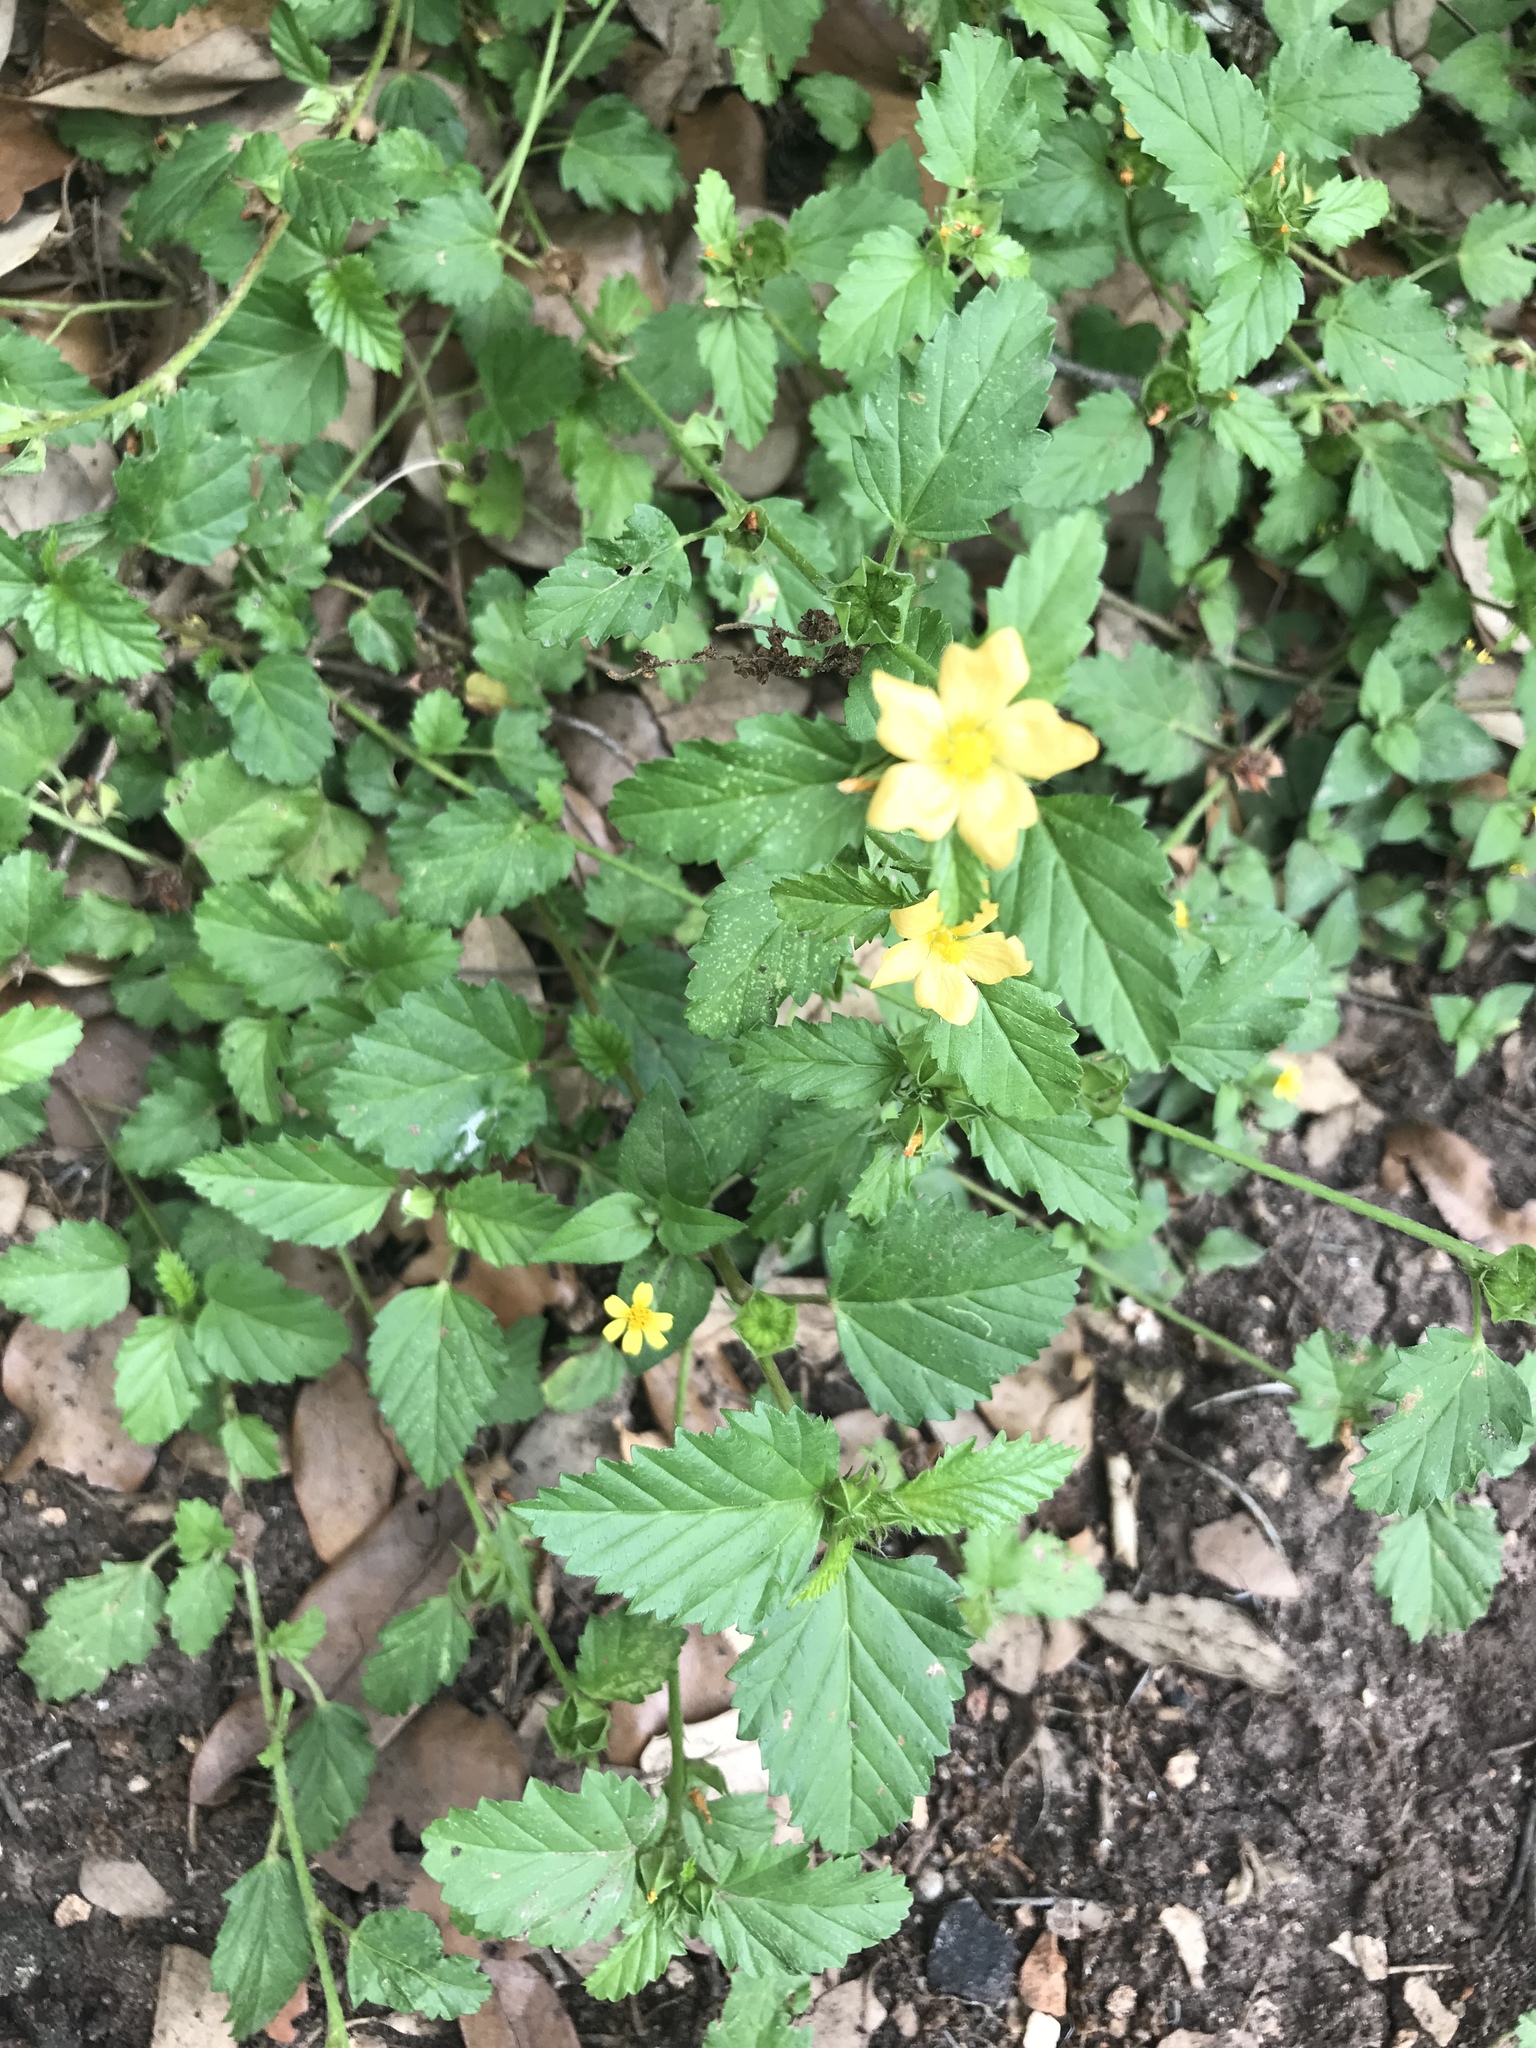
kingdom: Plantae
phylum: Tracheophyta
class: Magnoliopsida
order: Malvales
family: Malvaceae
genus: Malvastrum
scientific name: Malvastrum coromandelianum
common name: Threelobe false mallow
